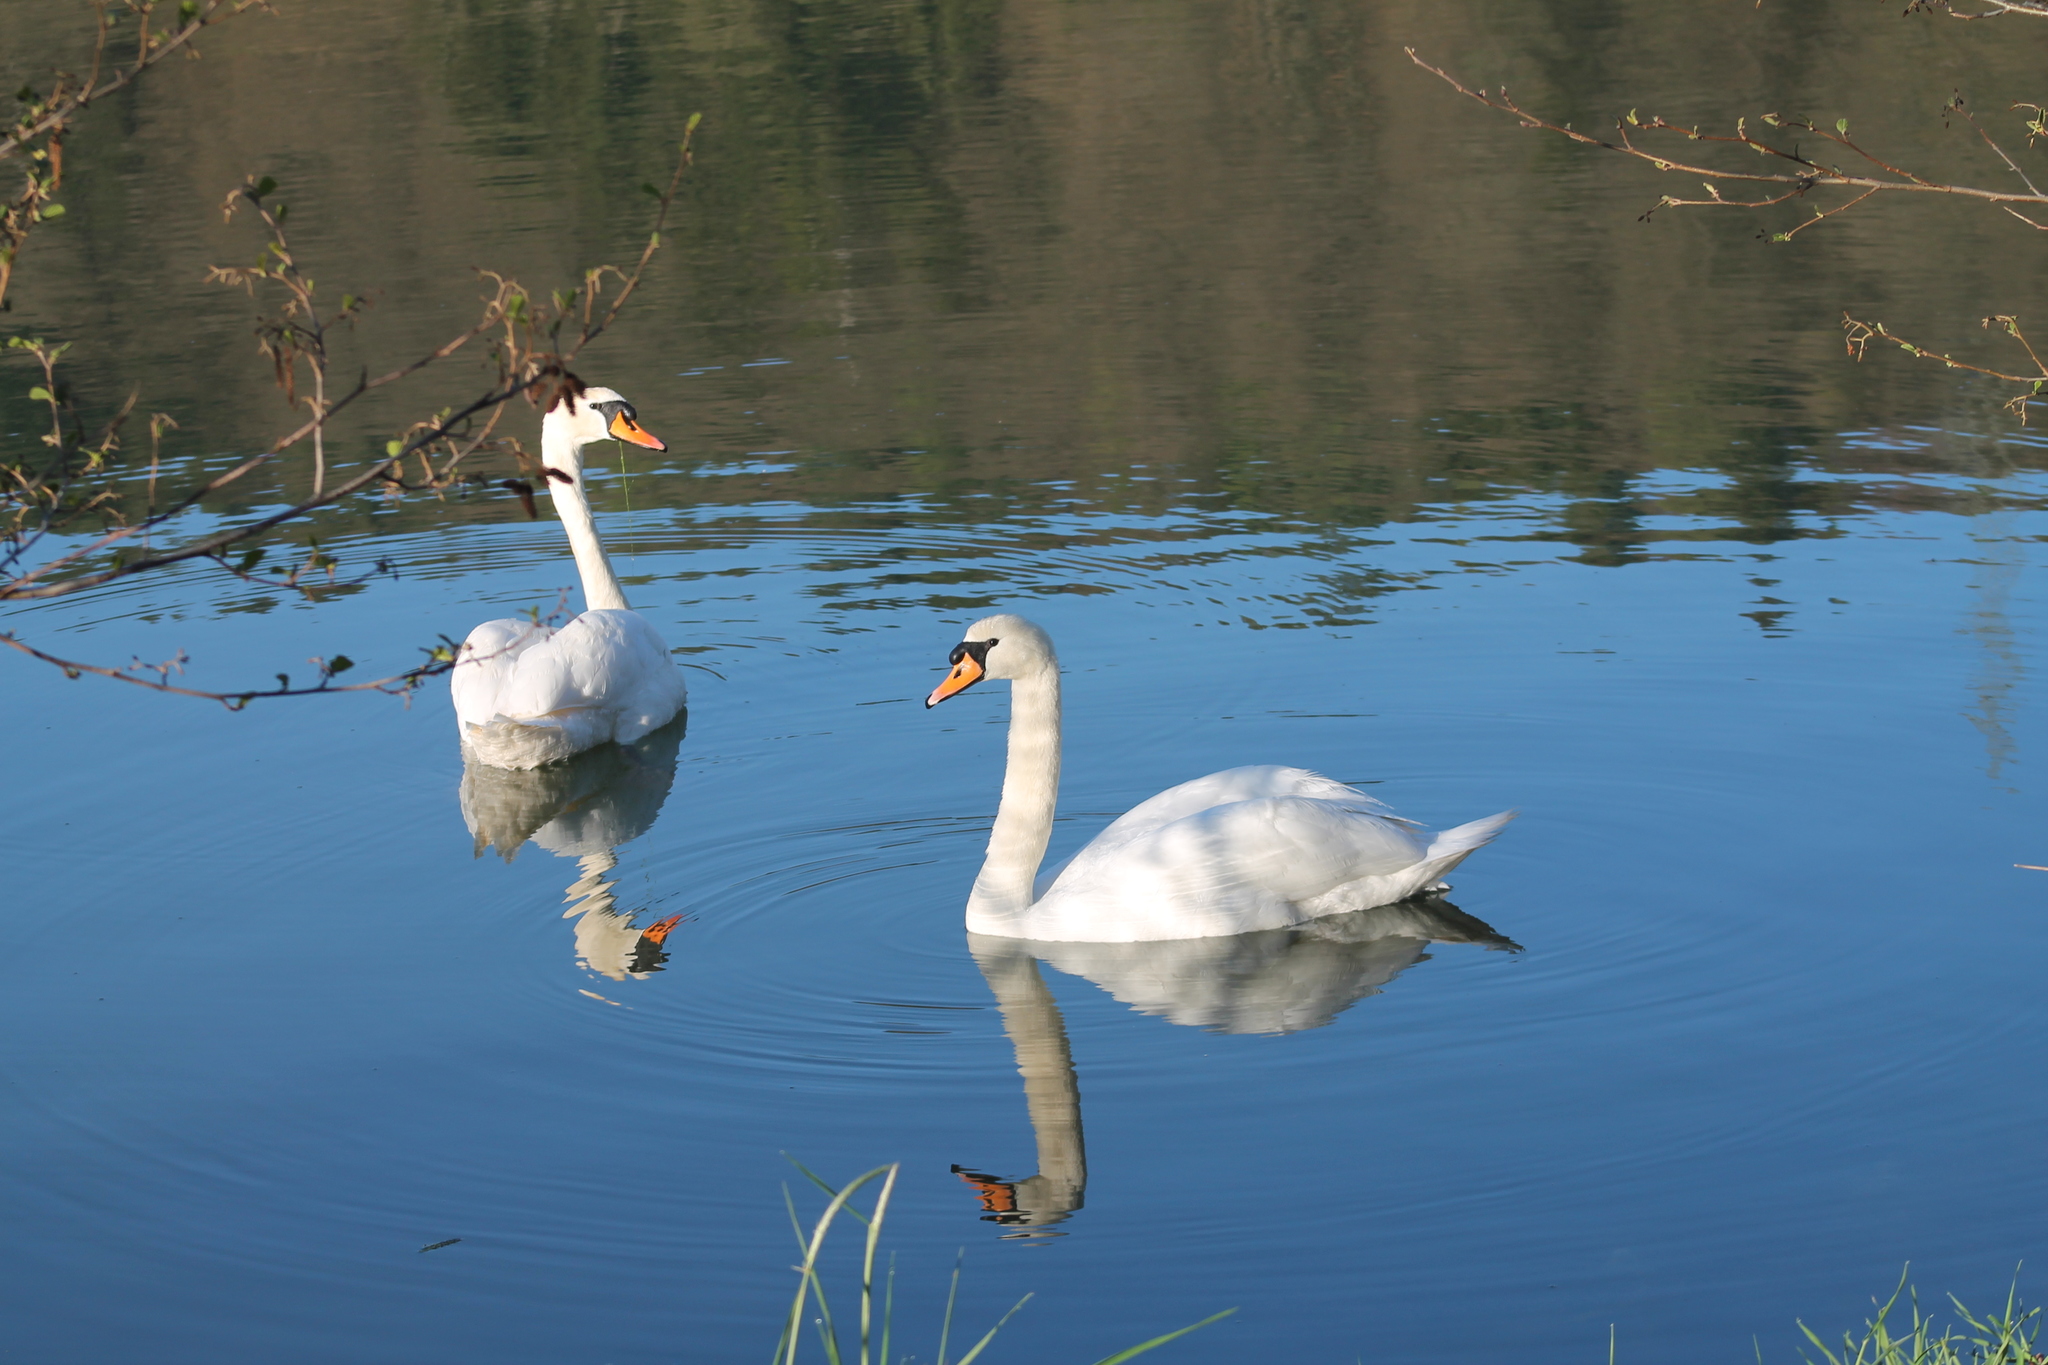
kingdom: Animalia
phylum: Chordata
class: Aves
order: Anseriformes
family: Anatidae
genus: Cygnus
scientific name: Cygnus olor
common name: Mute swan
